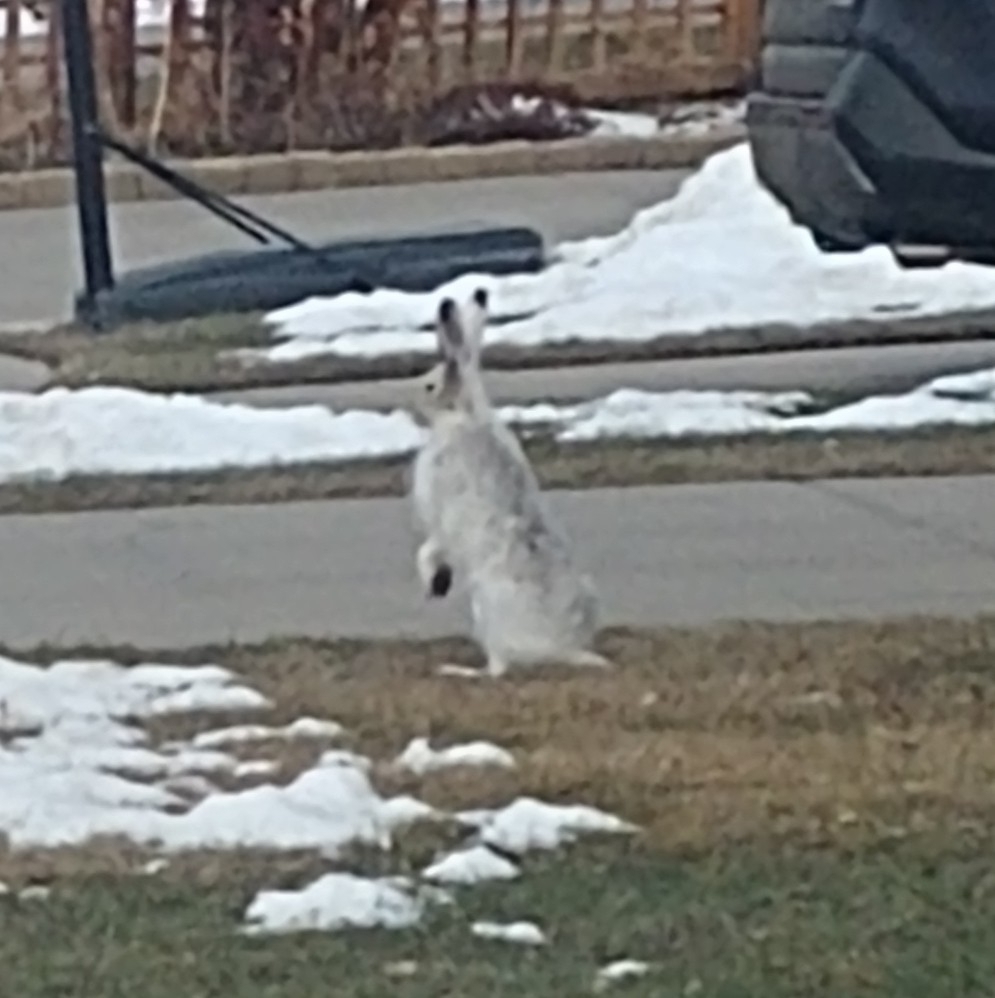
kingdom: Animalia
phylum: Chordata
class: Mammalia
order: Lagomorpha
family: Leporidae
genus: Lepus
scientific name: Lepus townsendii
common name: White-tailed jackrabbit
